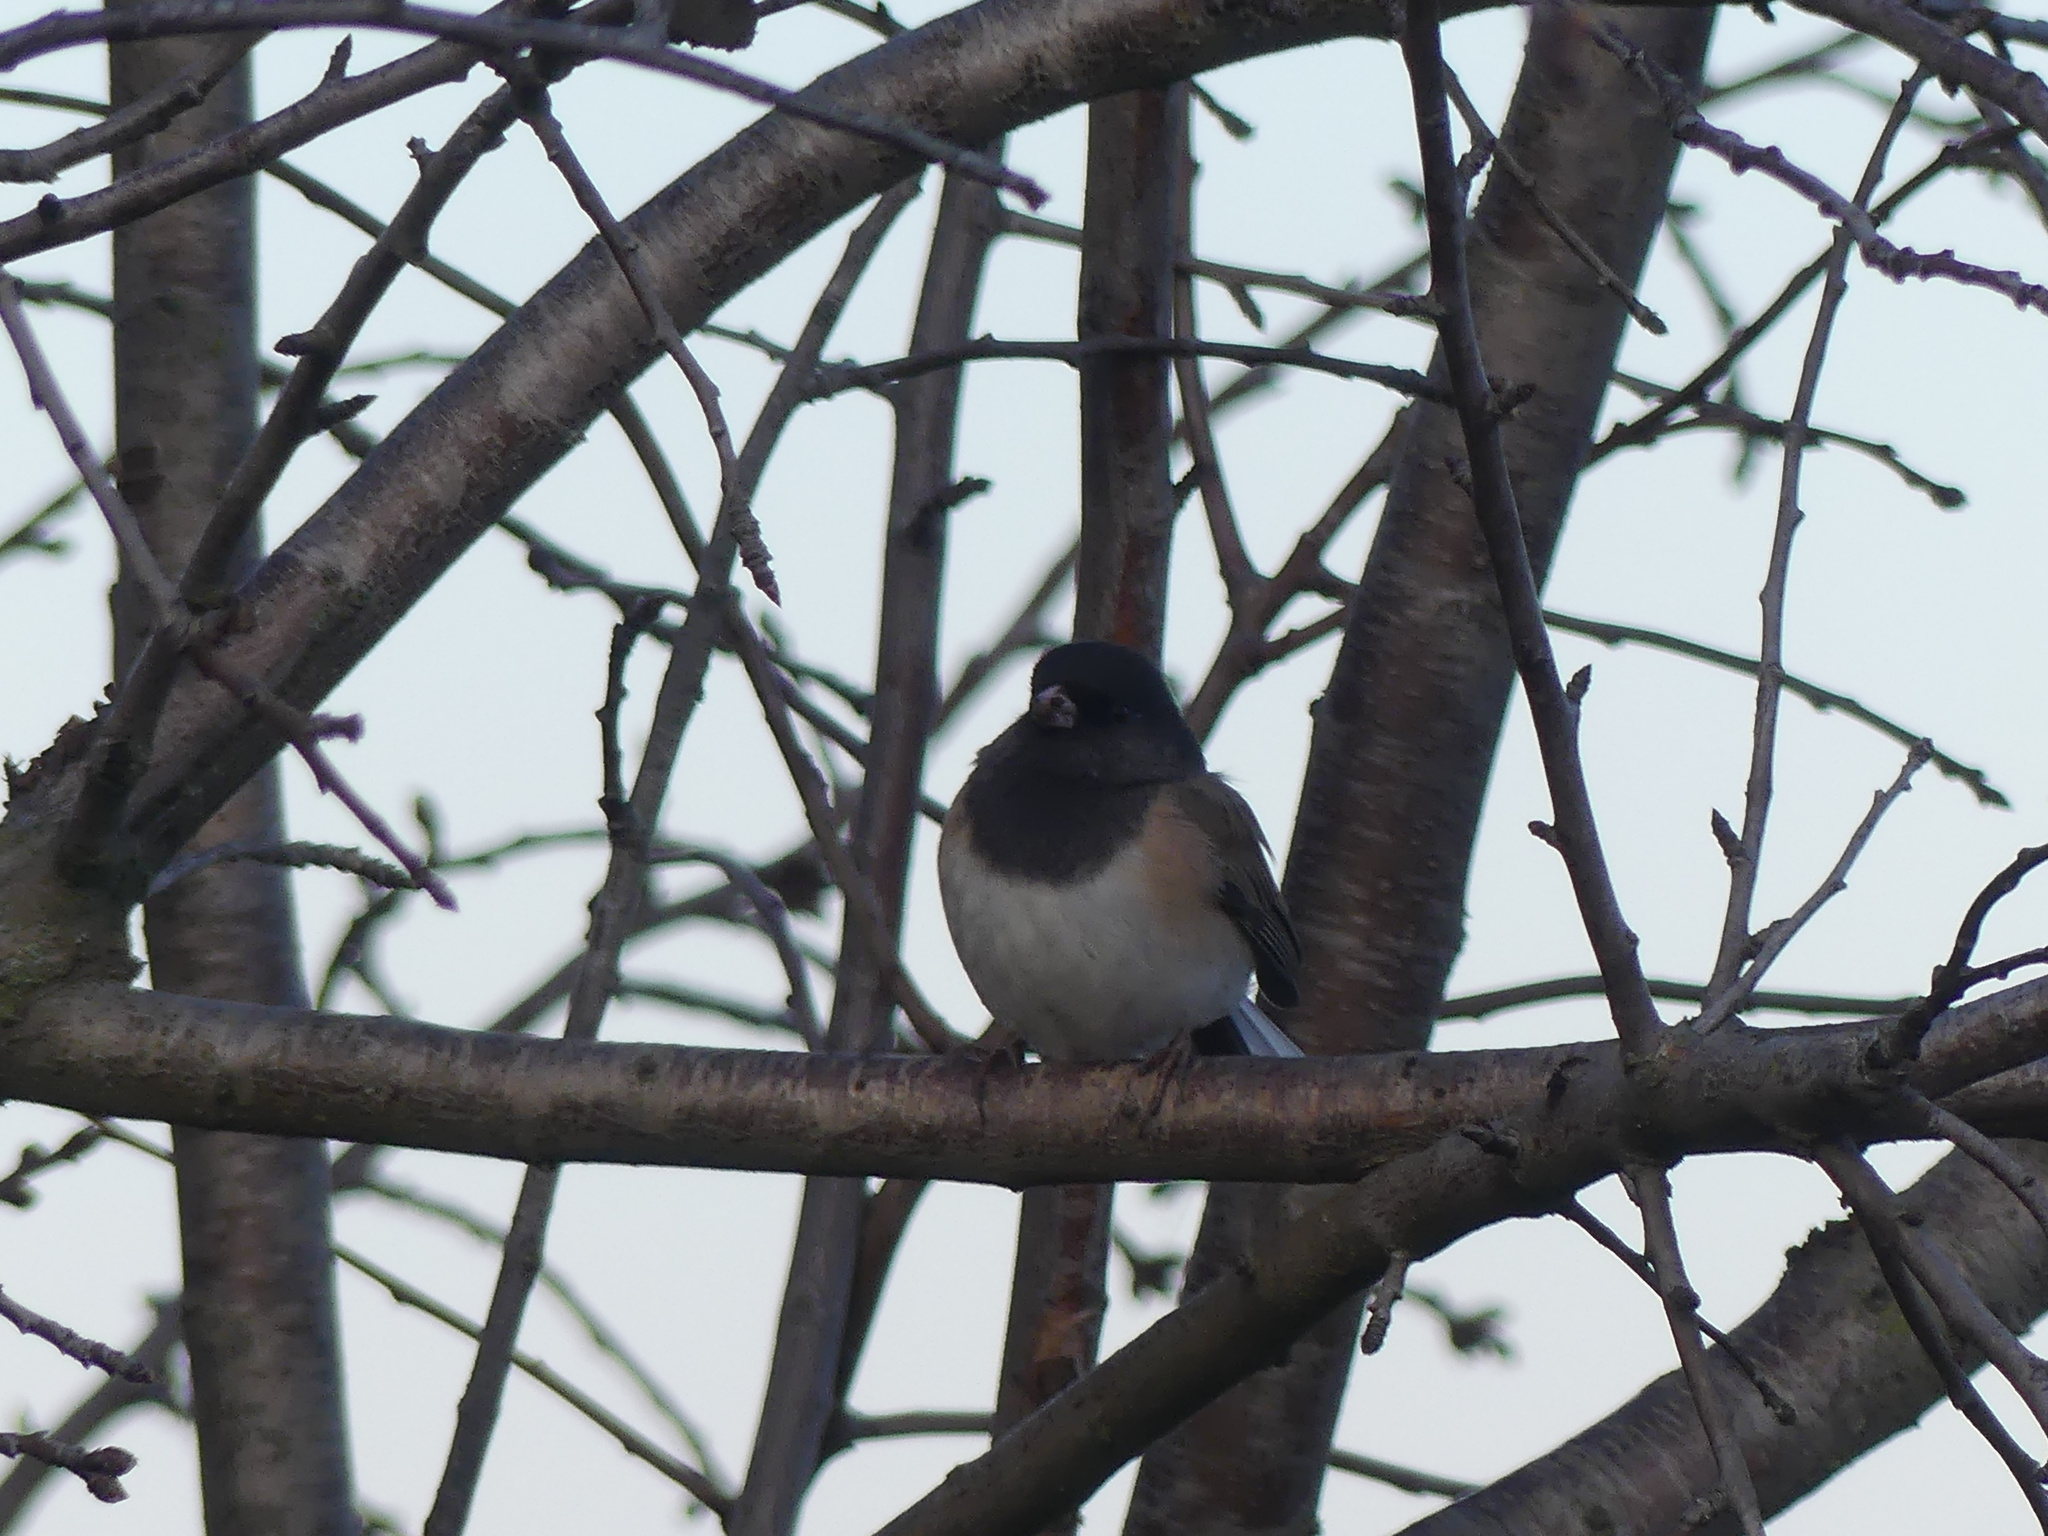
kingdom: Animalia
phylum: Chordata
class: Aves
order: Passeriformes
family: Passerellidae
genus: Junco
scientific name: Junco hyemalis
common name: Dark-eyed junco
